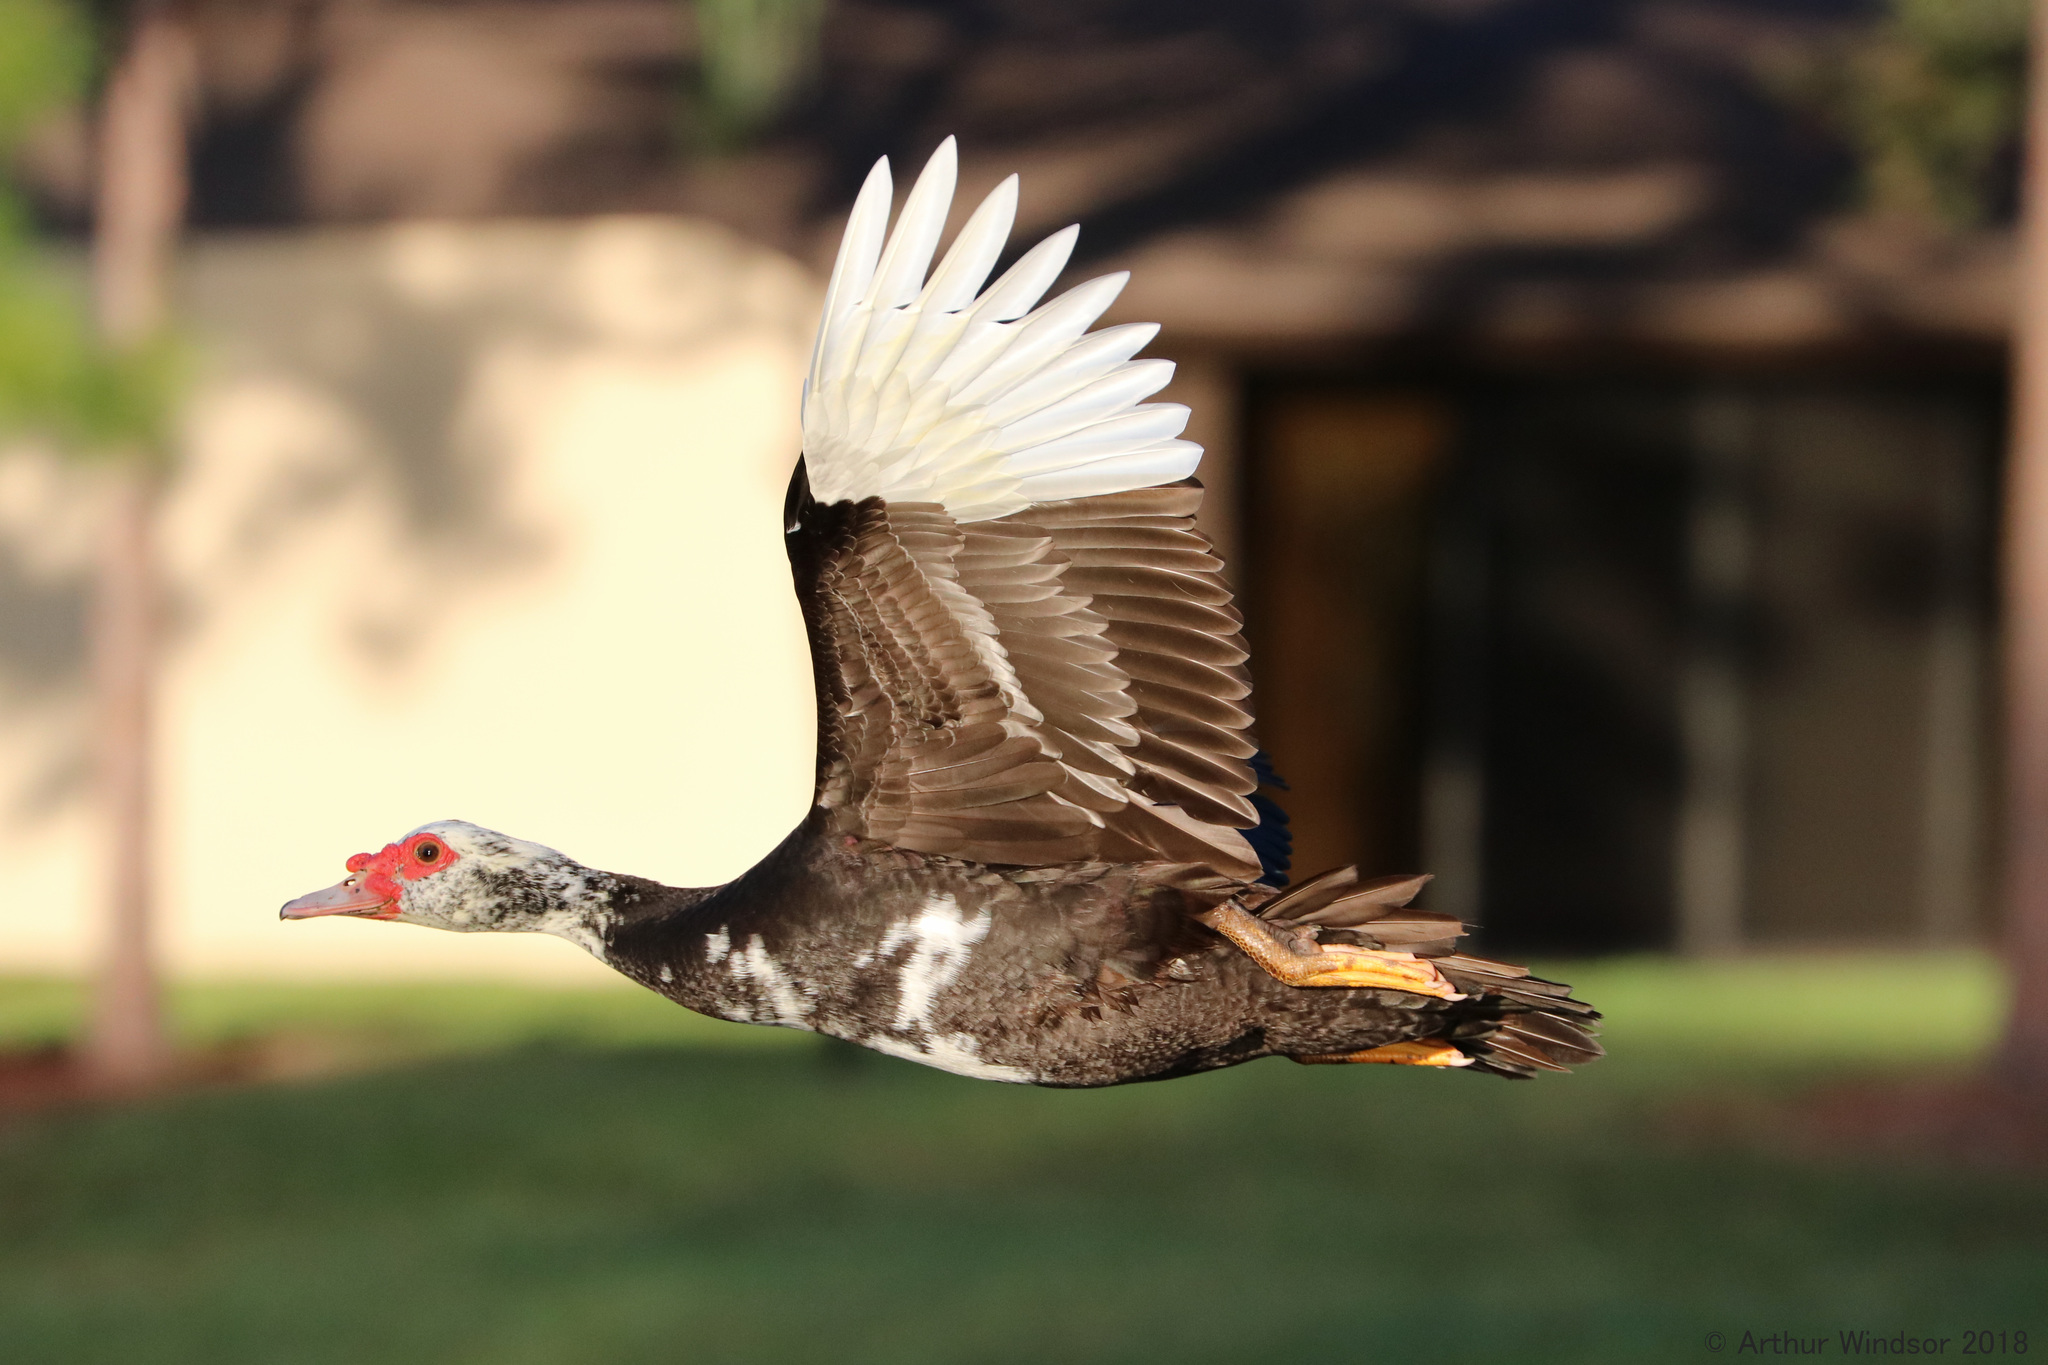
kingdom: Animalia
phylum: Chordata
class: Aves
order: Anseriformes
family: Anatidae
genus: Cairina
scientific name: Cairina moschata
